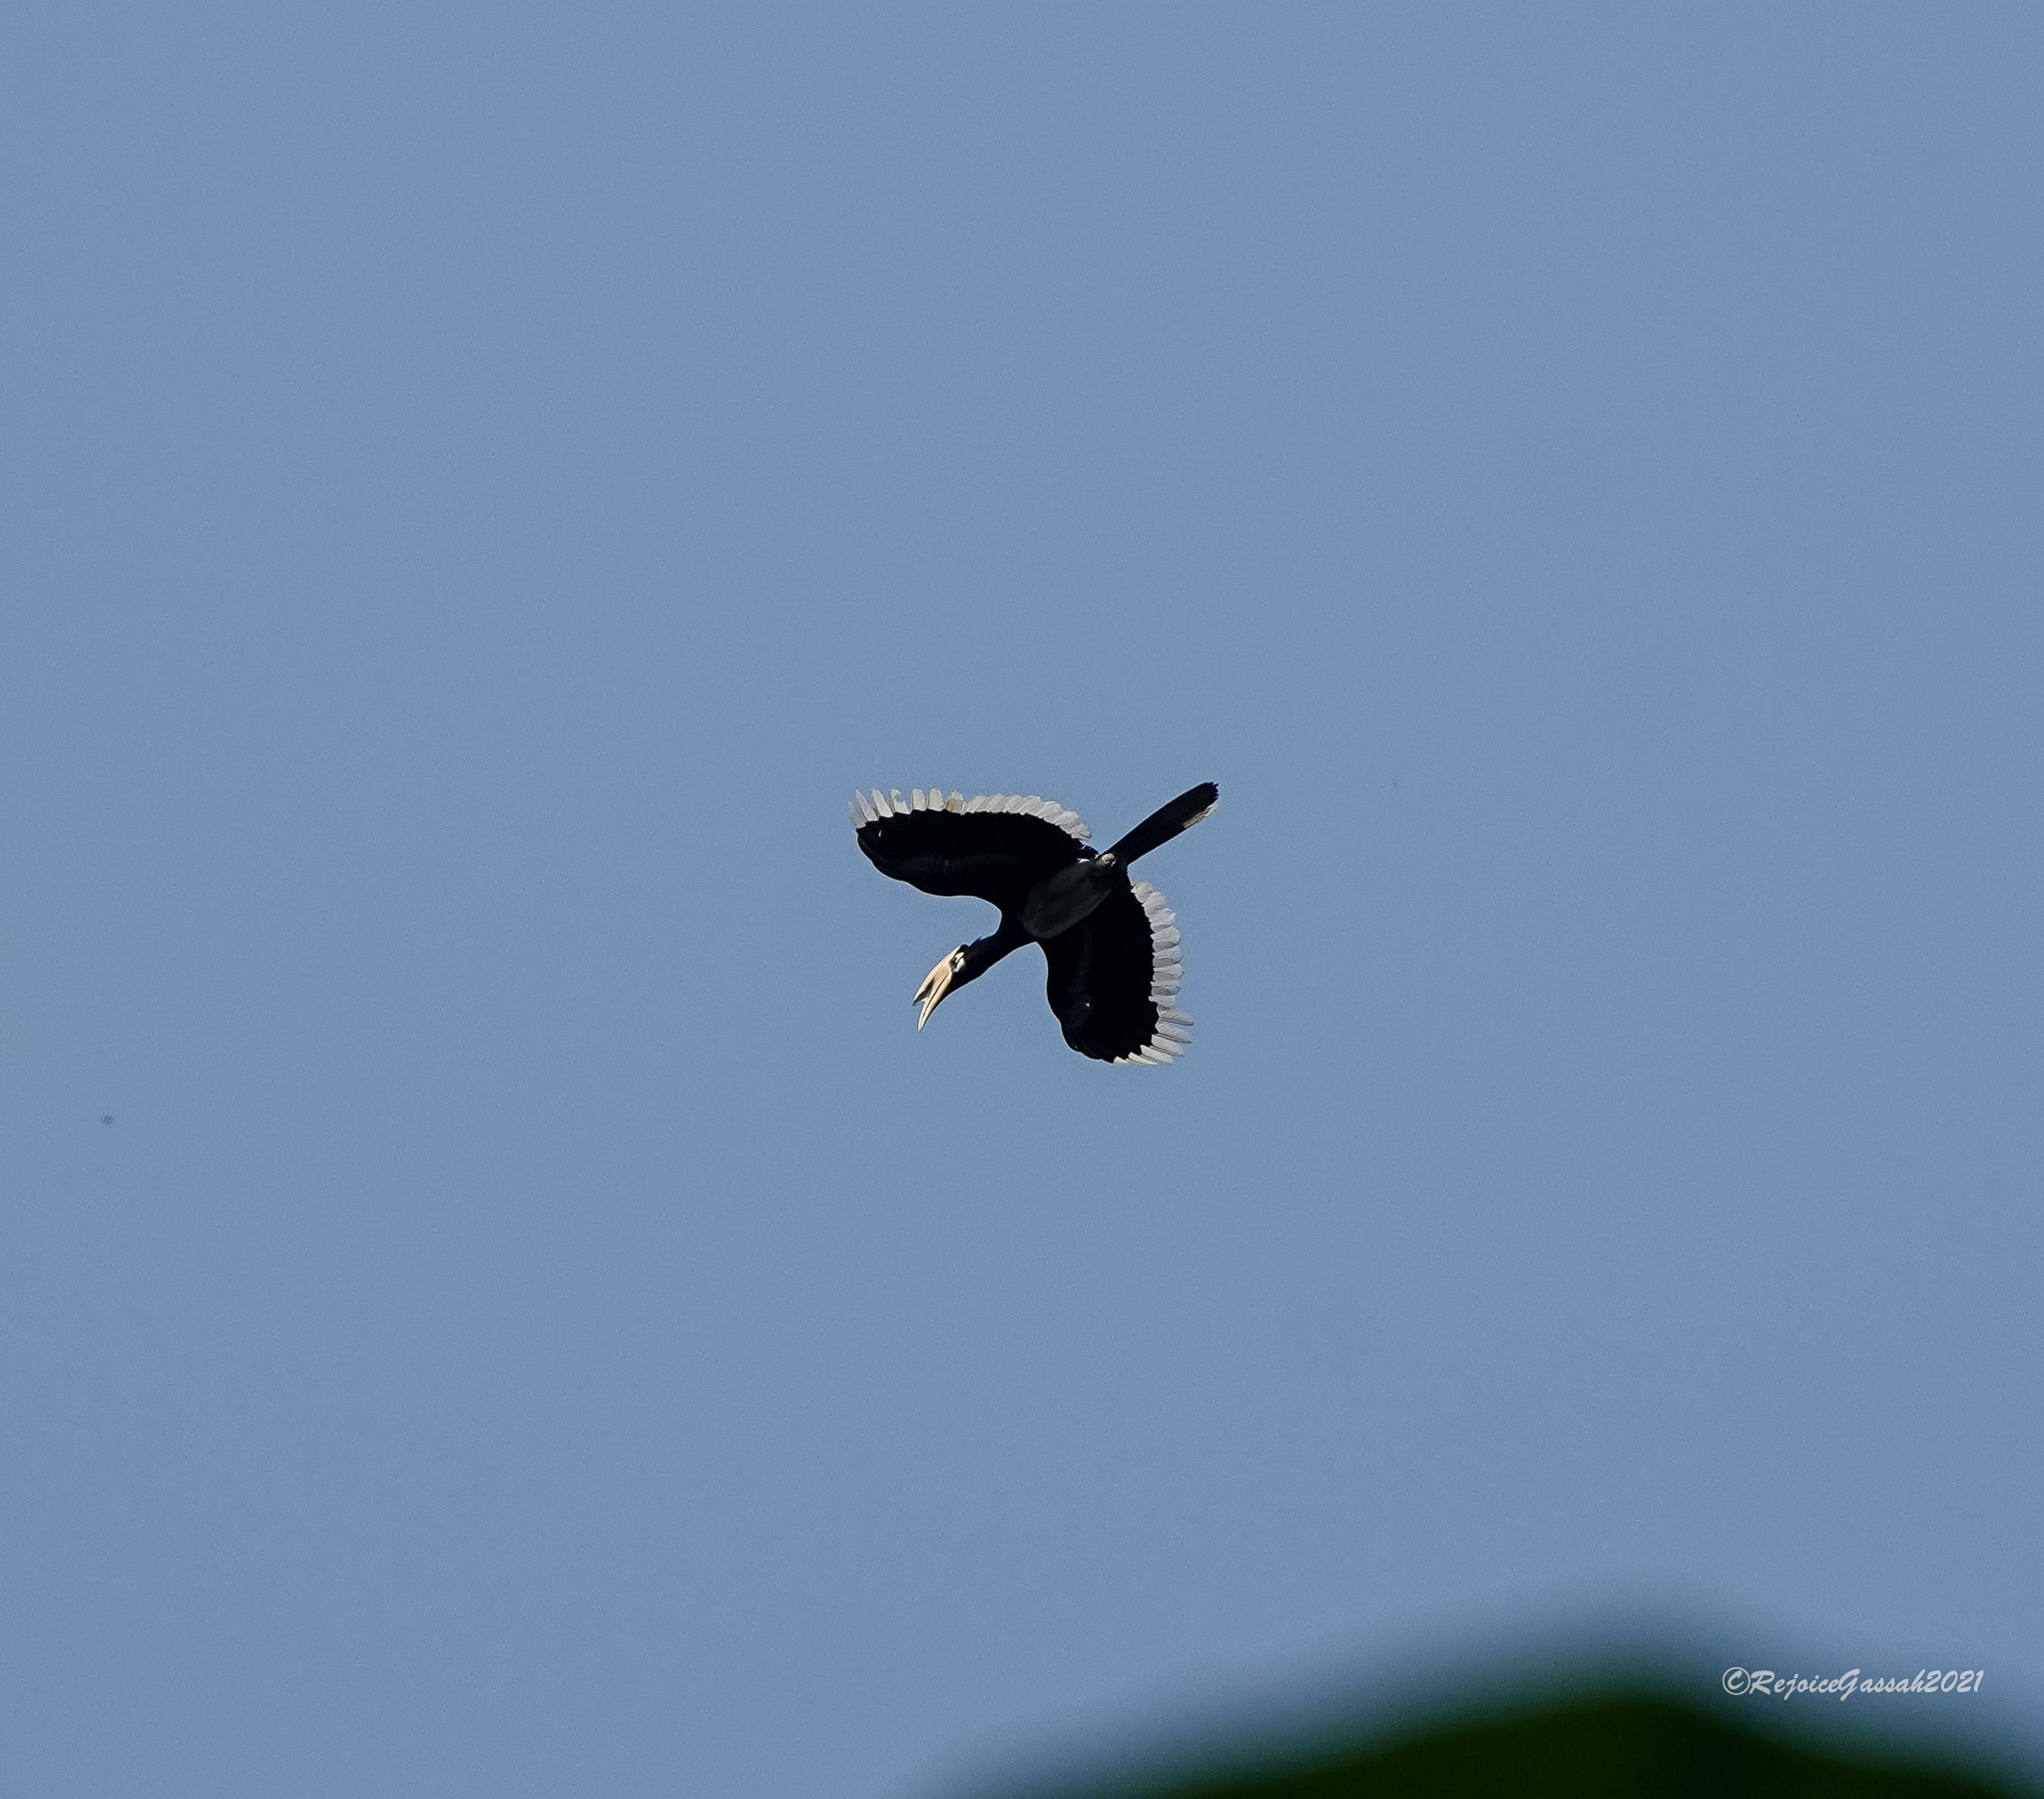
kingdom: Animalia
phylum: Chordata
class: Aves
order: Bucerotiformes
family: Bucerotidae
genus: Anthracoceros
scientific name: Anthracoceros albirostris
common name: Oriental pied-hornbill
